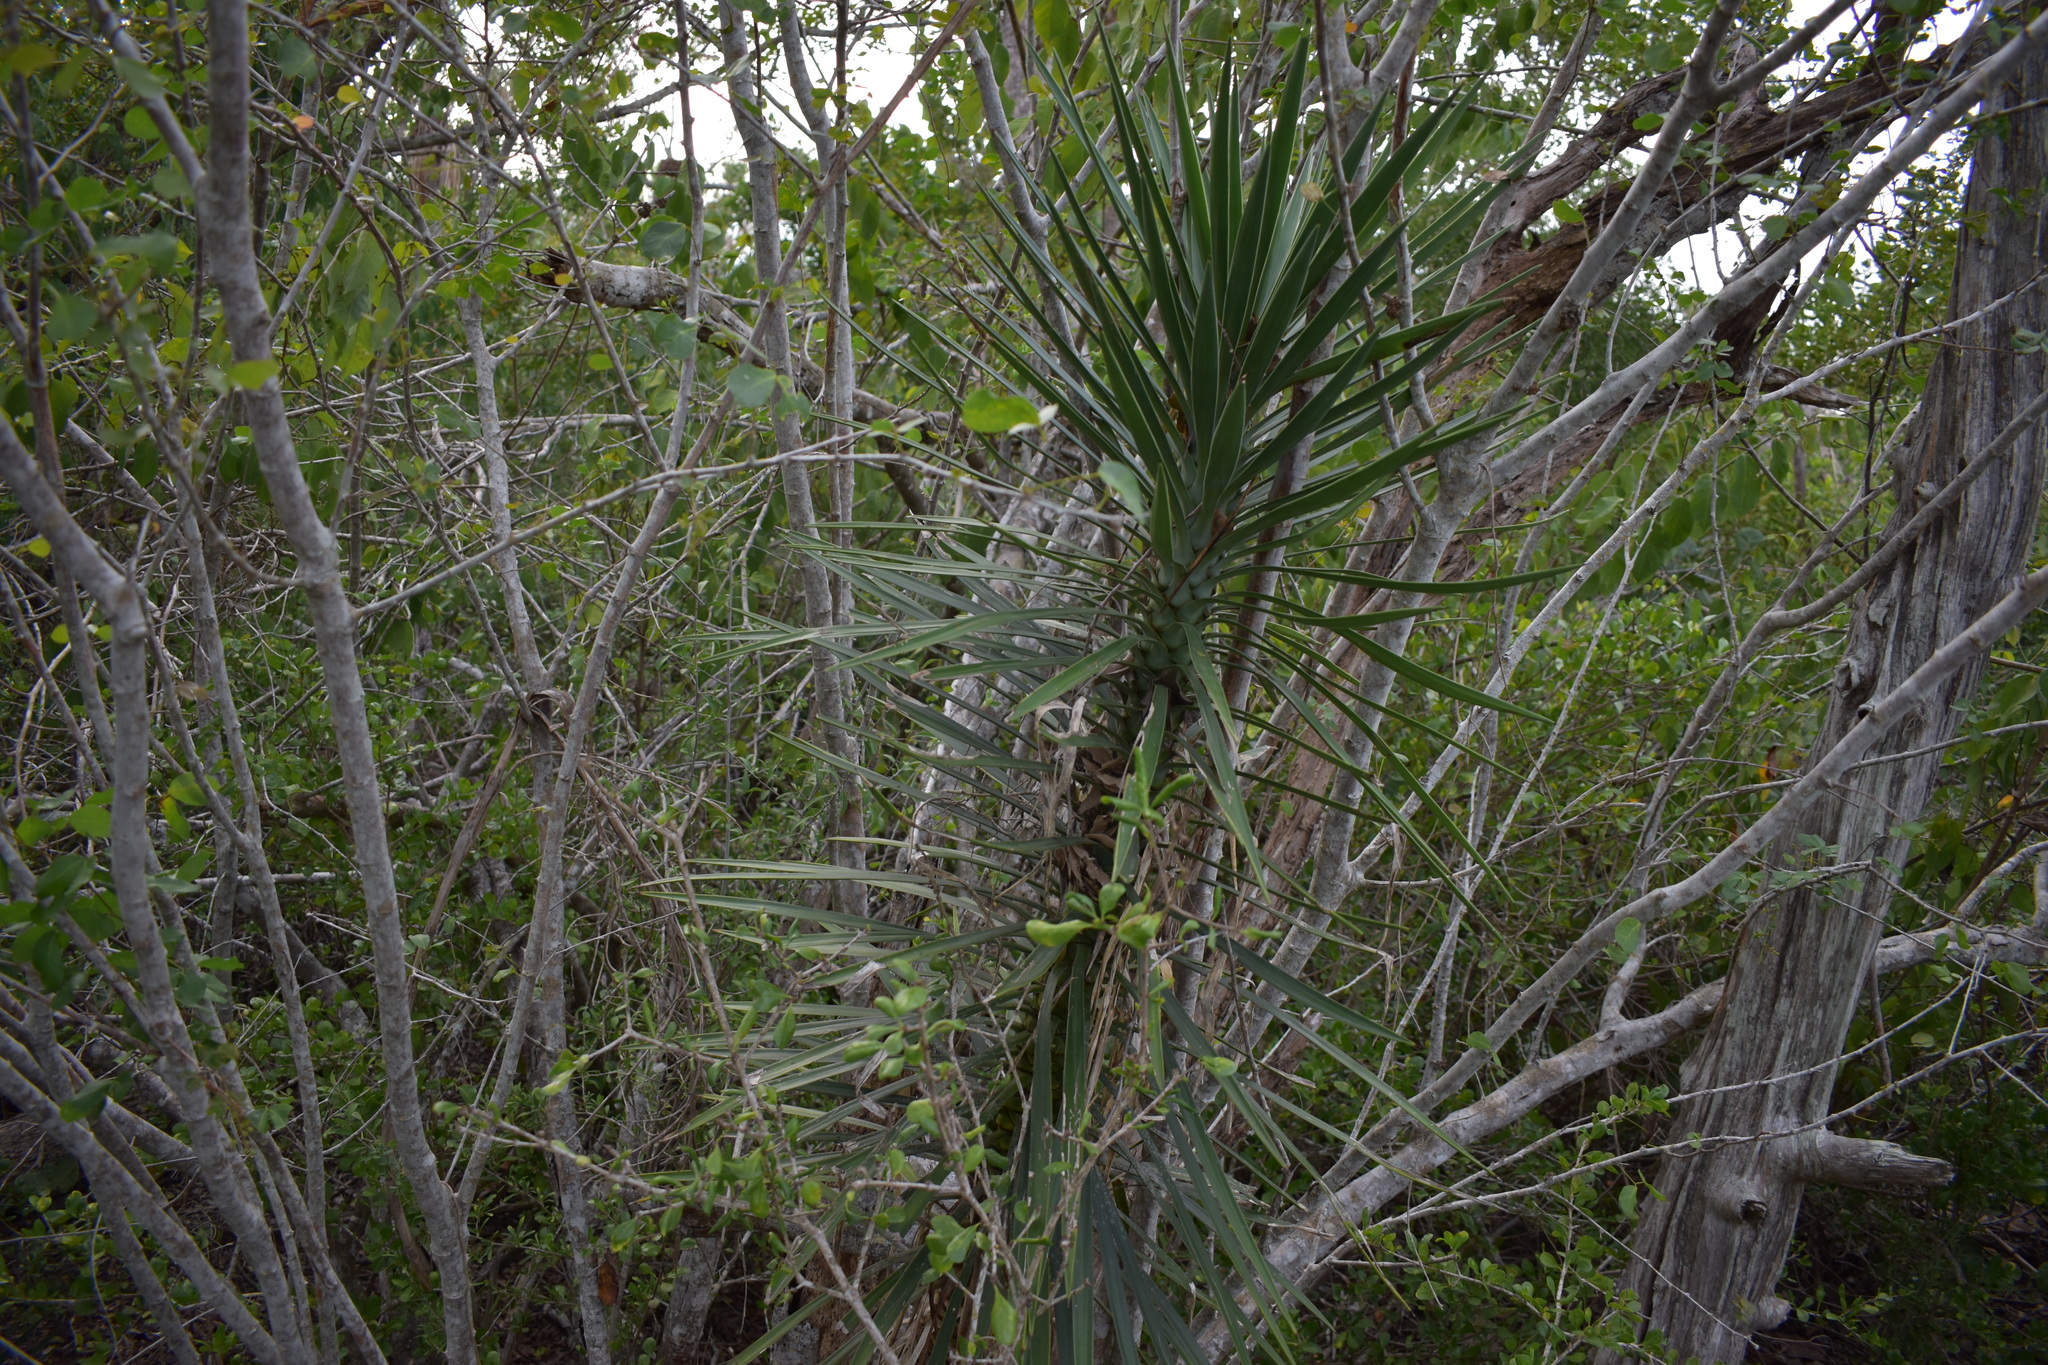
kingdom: Plantae
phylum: Tracheophyta
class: Liliopsida
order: Asparagales
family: Asparagaceae
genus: Yucca
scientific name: Yucca aloifolia
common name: Aloe yucca
